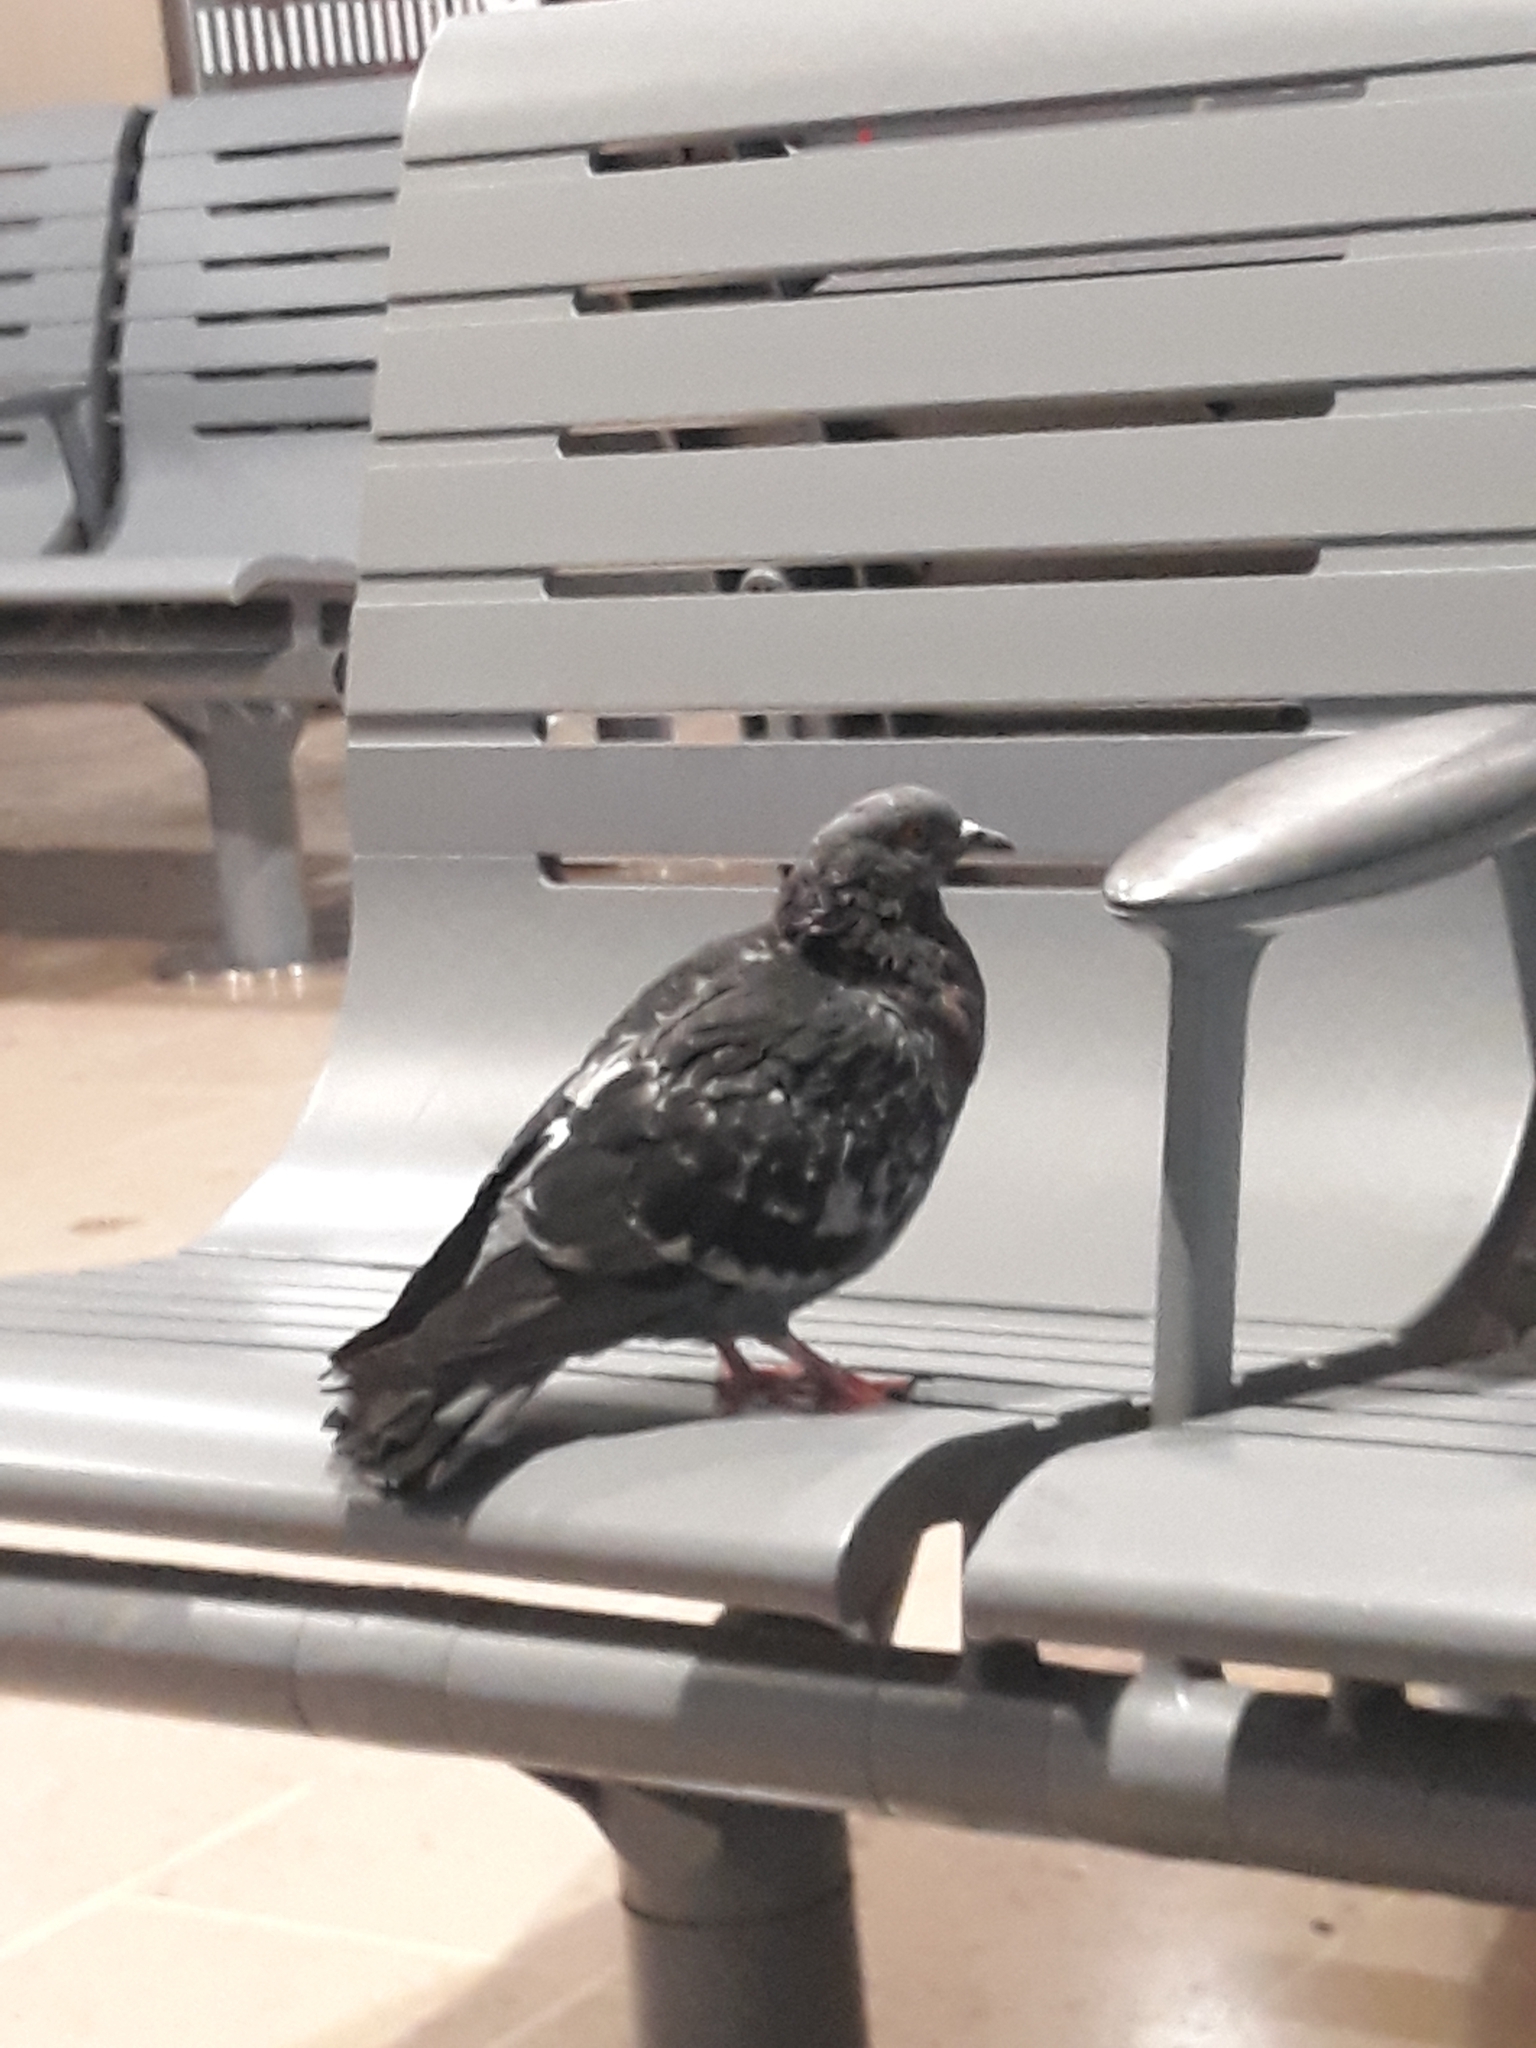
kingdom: Animalia
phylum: Chordata
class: Aves
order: Columbiformes
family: Columbidae
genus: Columba
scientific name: Columba livia
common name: Rock pigeon
